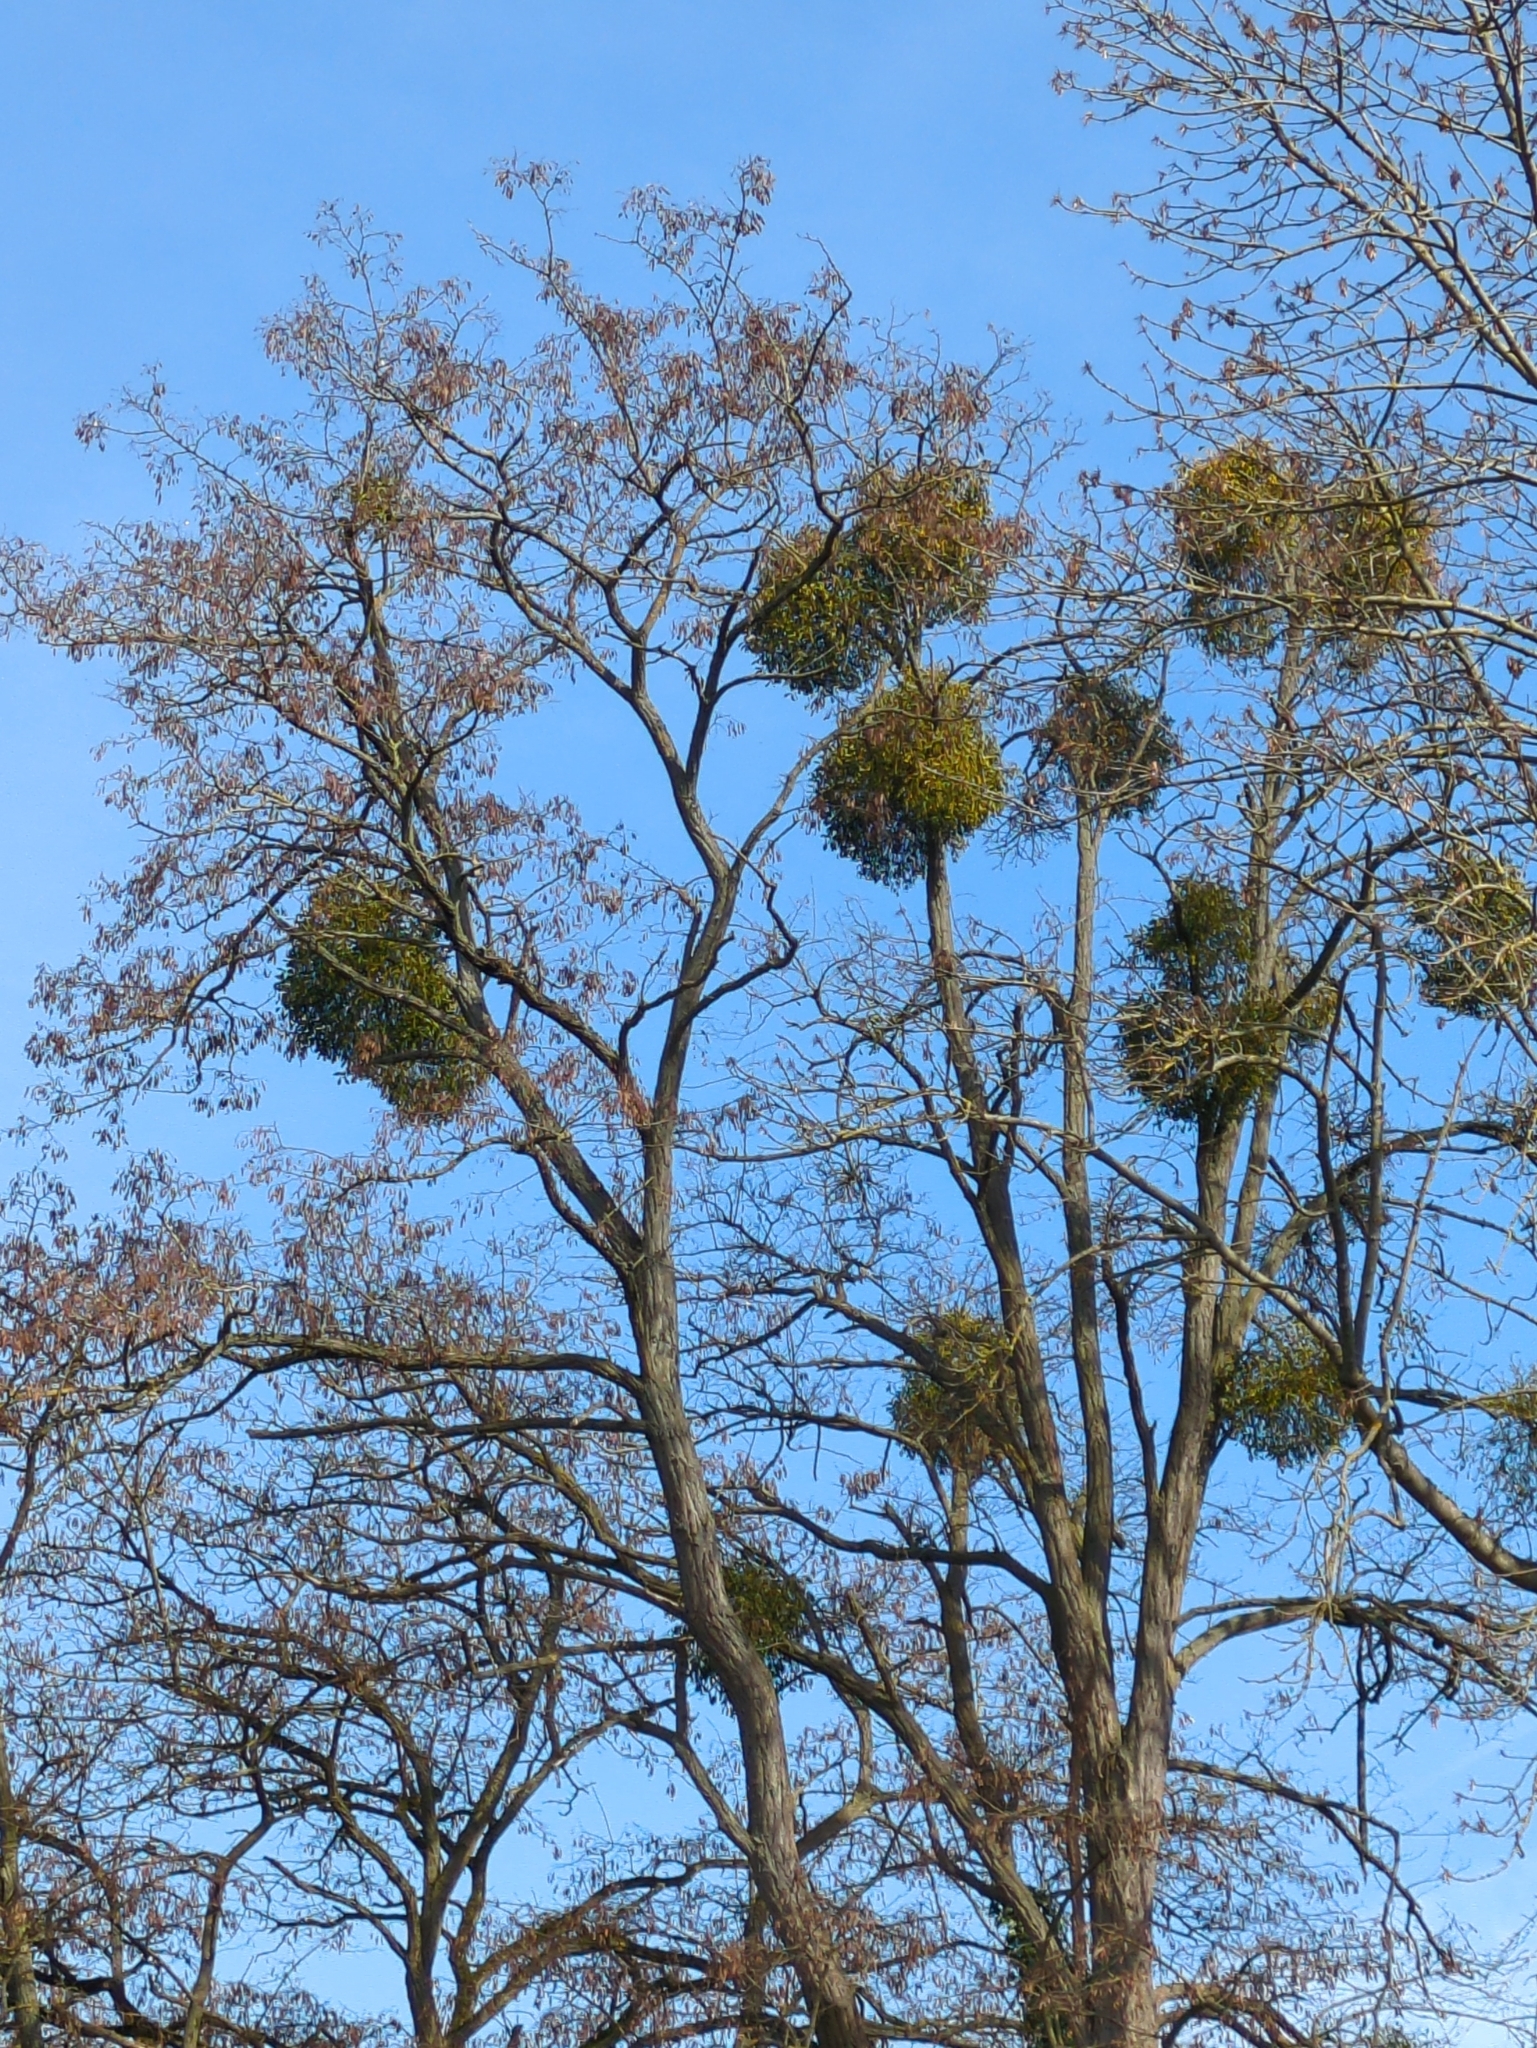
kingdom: Plantae
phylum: Tracheophyta
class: Magnoliopsida
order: Santalales
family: Viscaceae
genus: Viscum
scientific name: Viscum album
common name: Mistletoe
